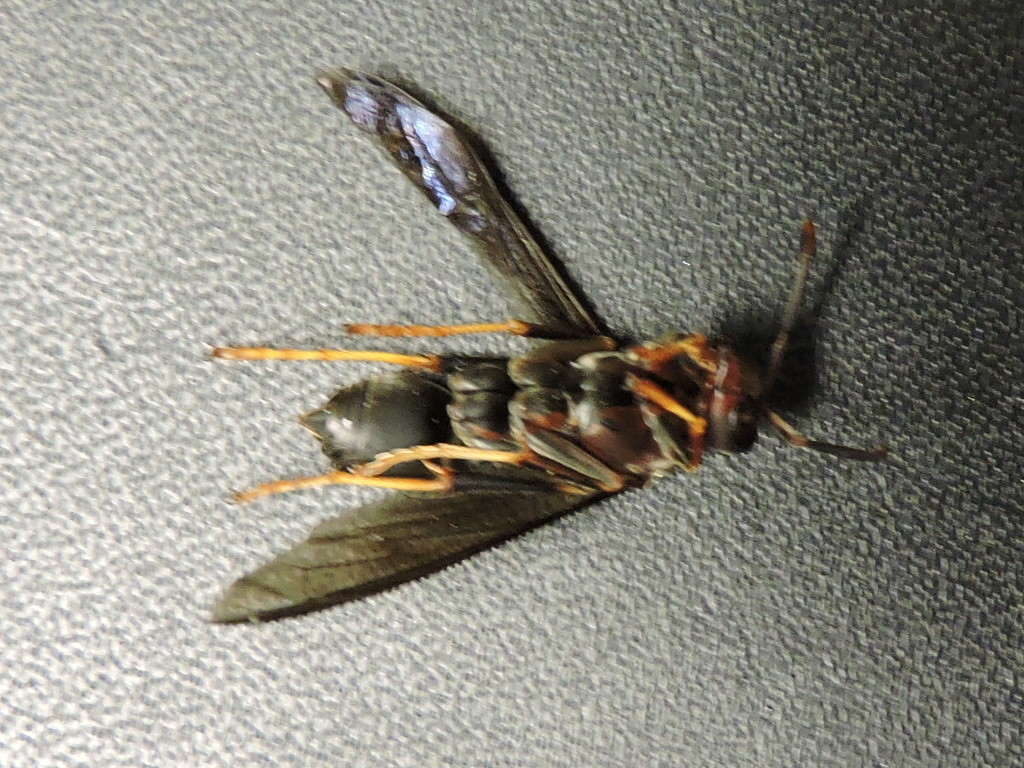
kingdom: Animalia
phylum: Arthropoda
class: Insecta
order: Hymenoptera
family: Eumenidae
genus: Polistes
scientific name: Polistes metricus
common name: Metric paper wasp
